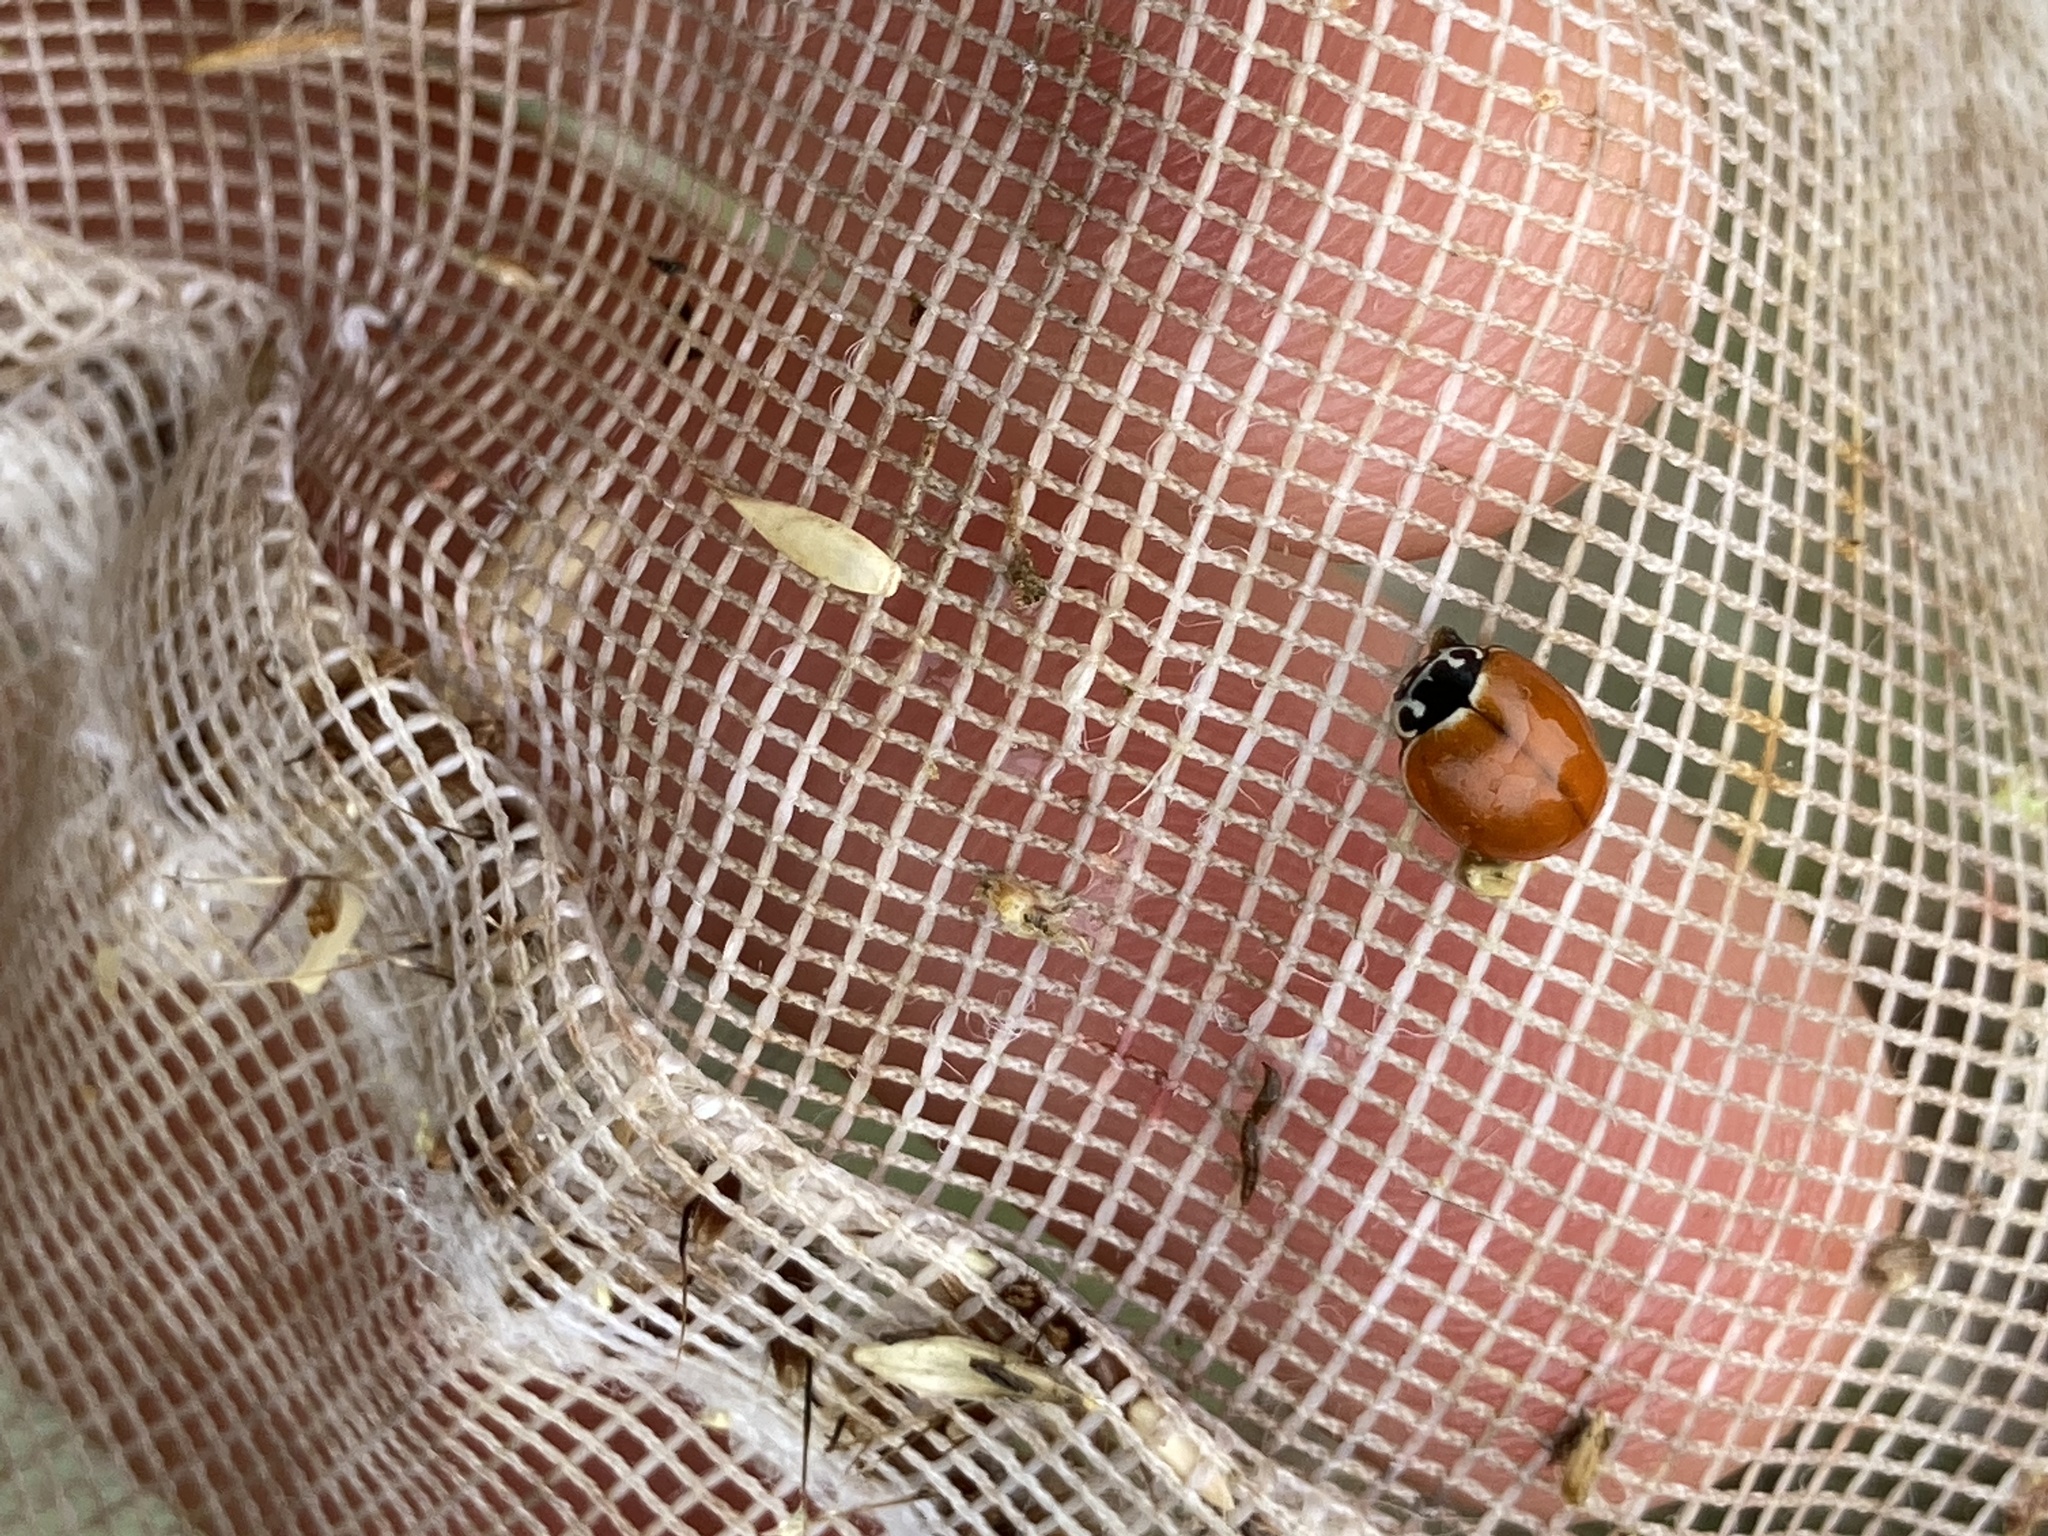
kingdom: Animalia
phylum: Arthropoda
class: Insecta
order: Coleoptera
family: Coccinellidae
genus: Cycloneda
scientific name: Cycloneda munda
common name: Polished lady beetle
